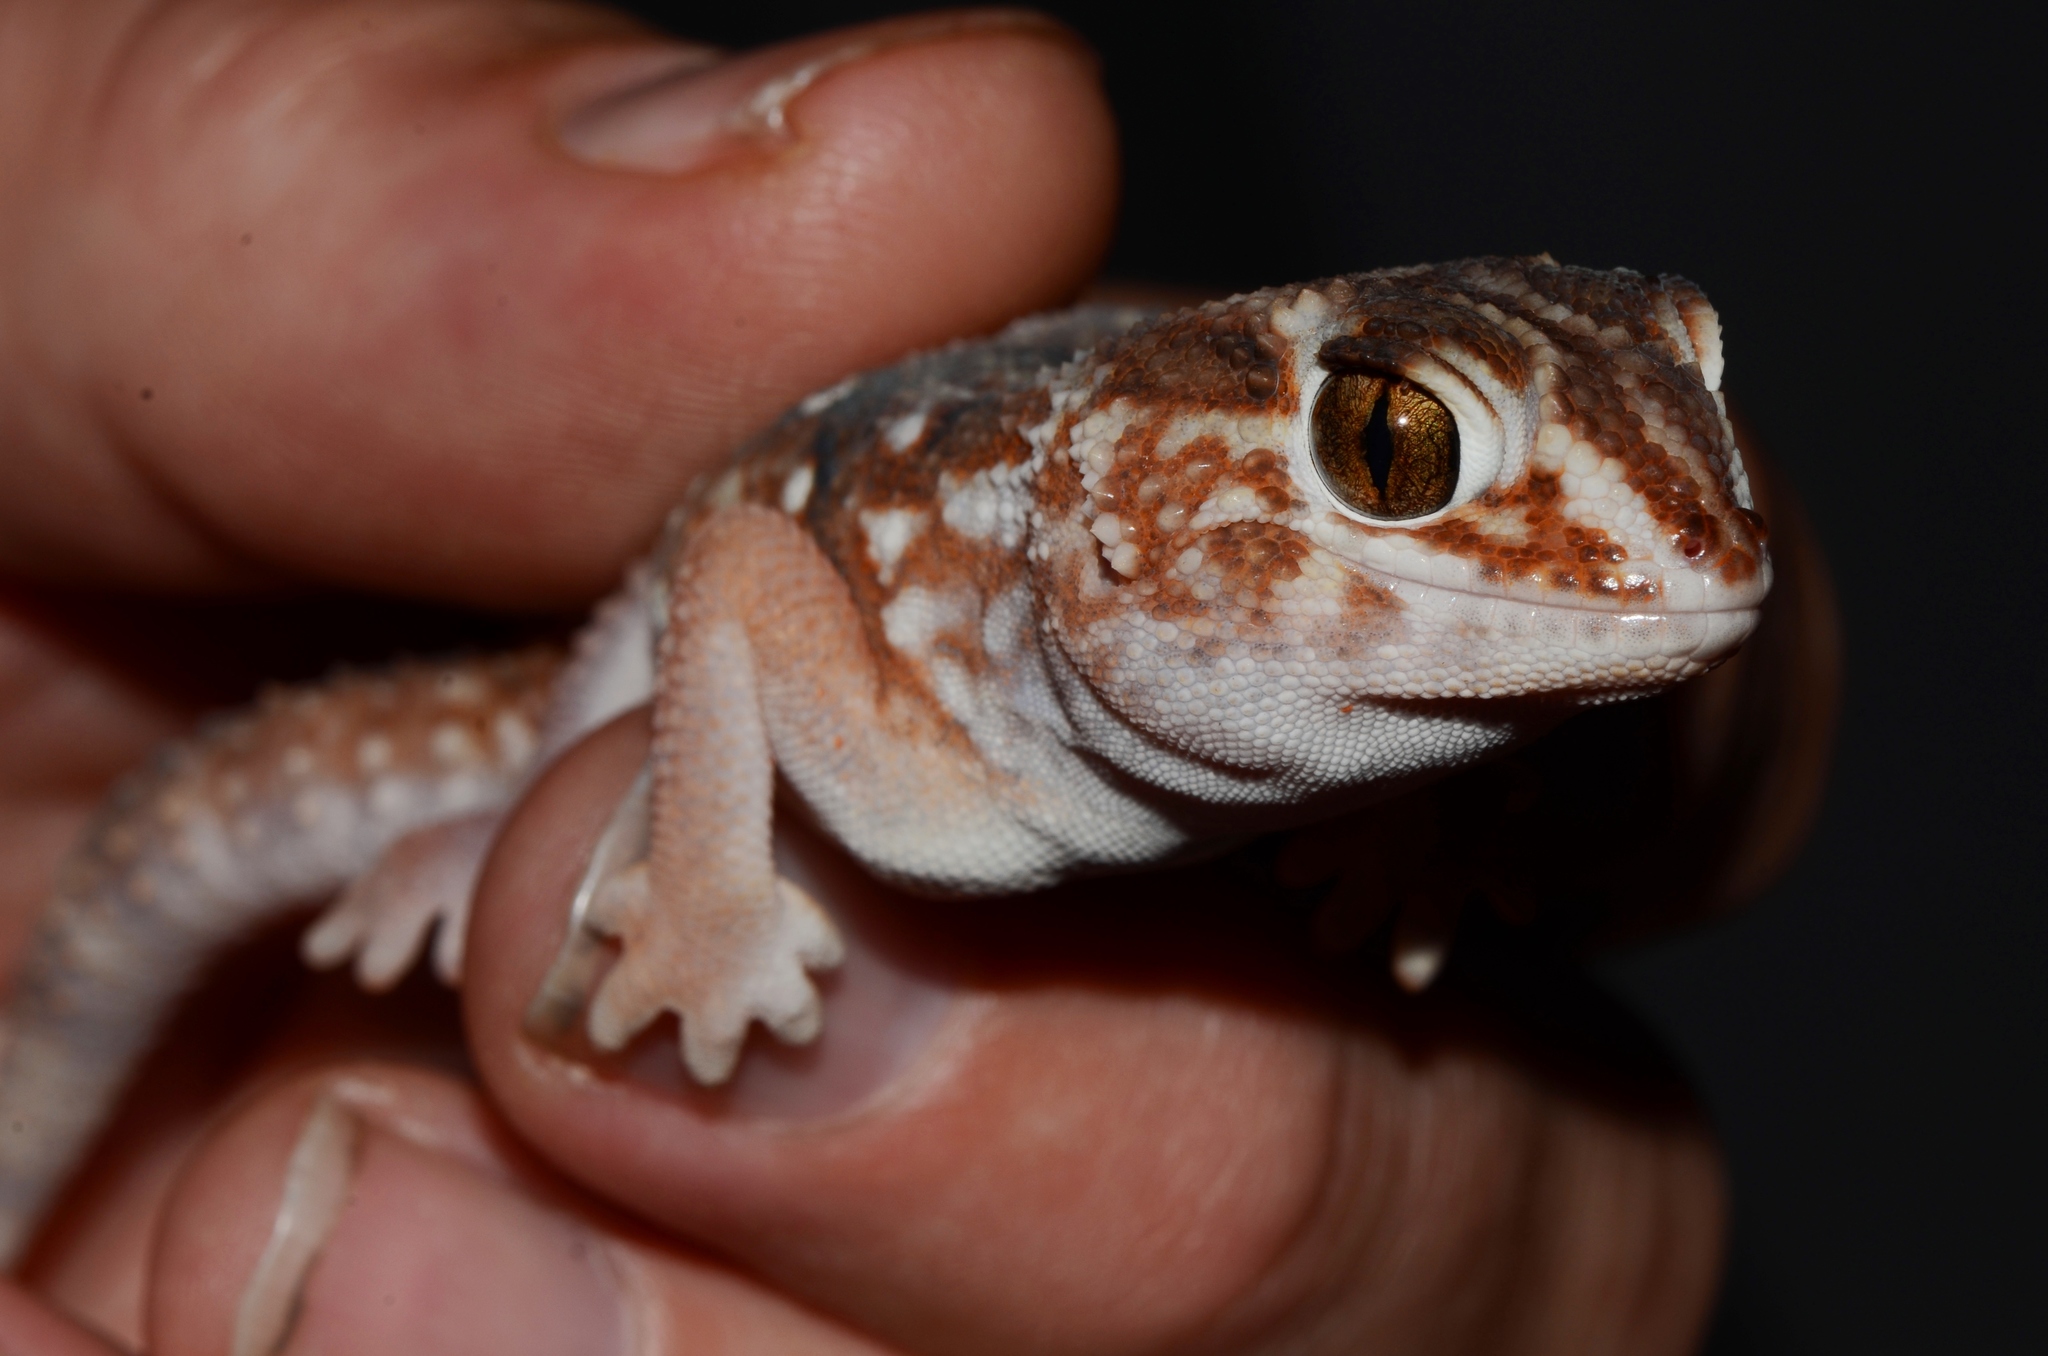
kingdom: Animalia
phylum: Chordata
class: Squamata
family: Gekkonidae
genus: Chondrodactylus
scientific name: Chondrodactylus angulifer
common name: Common giant ground gecko
